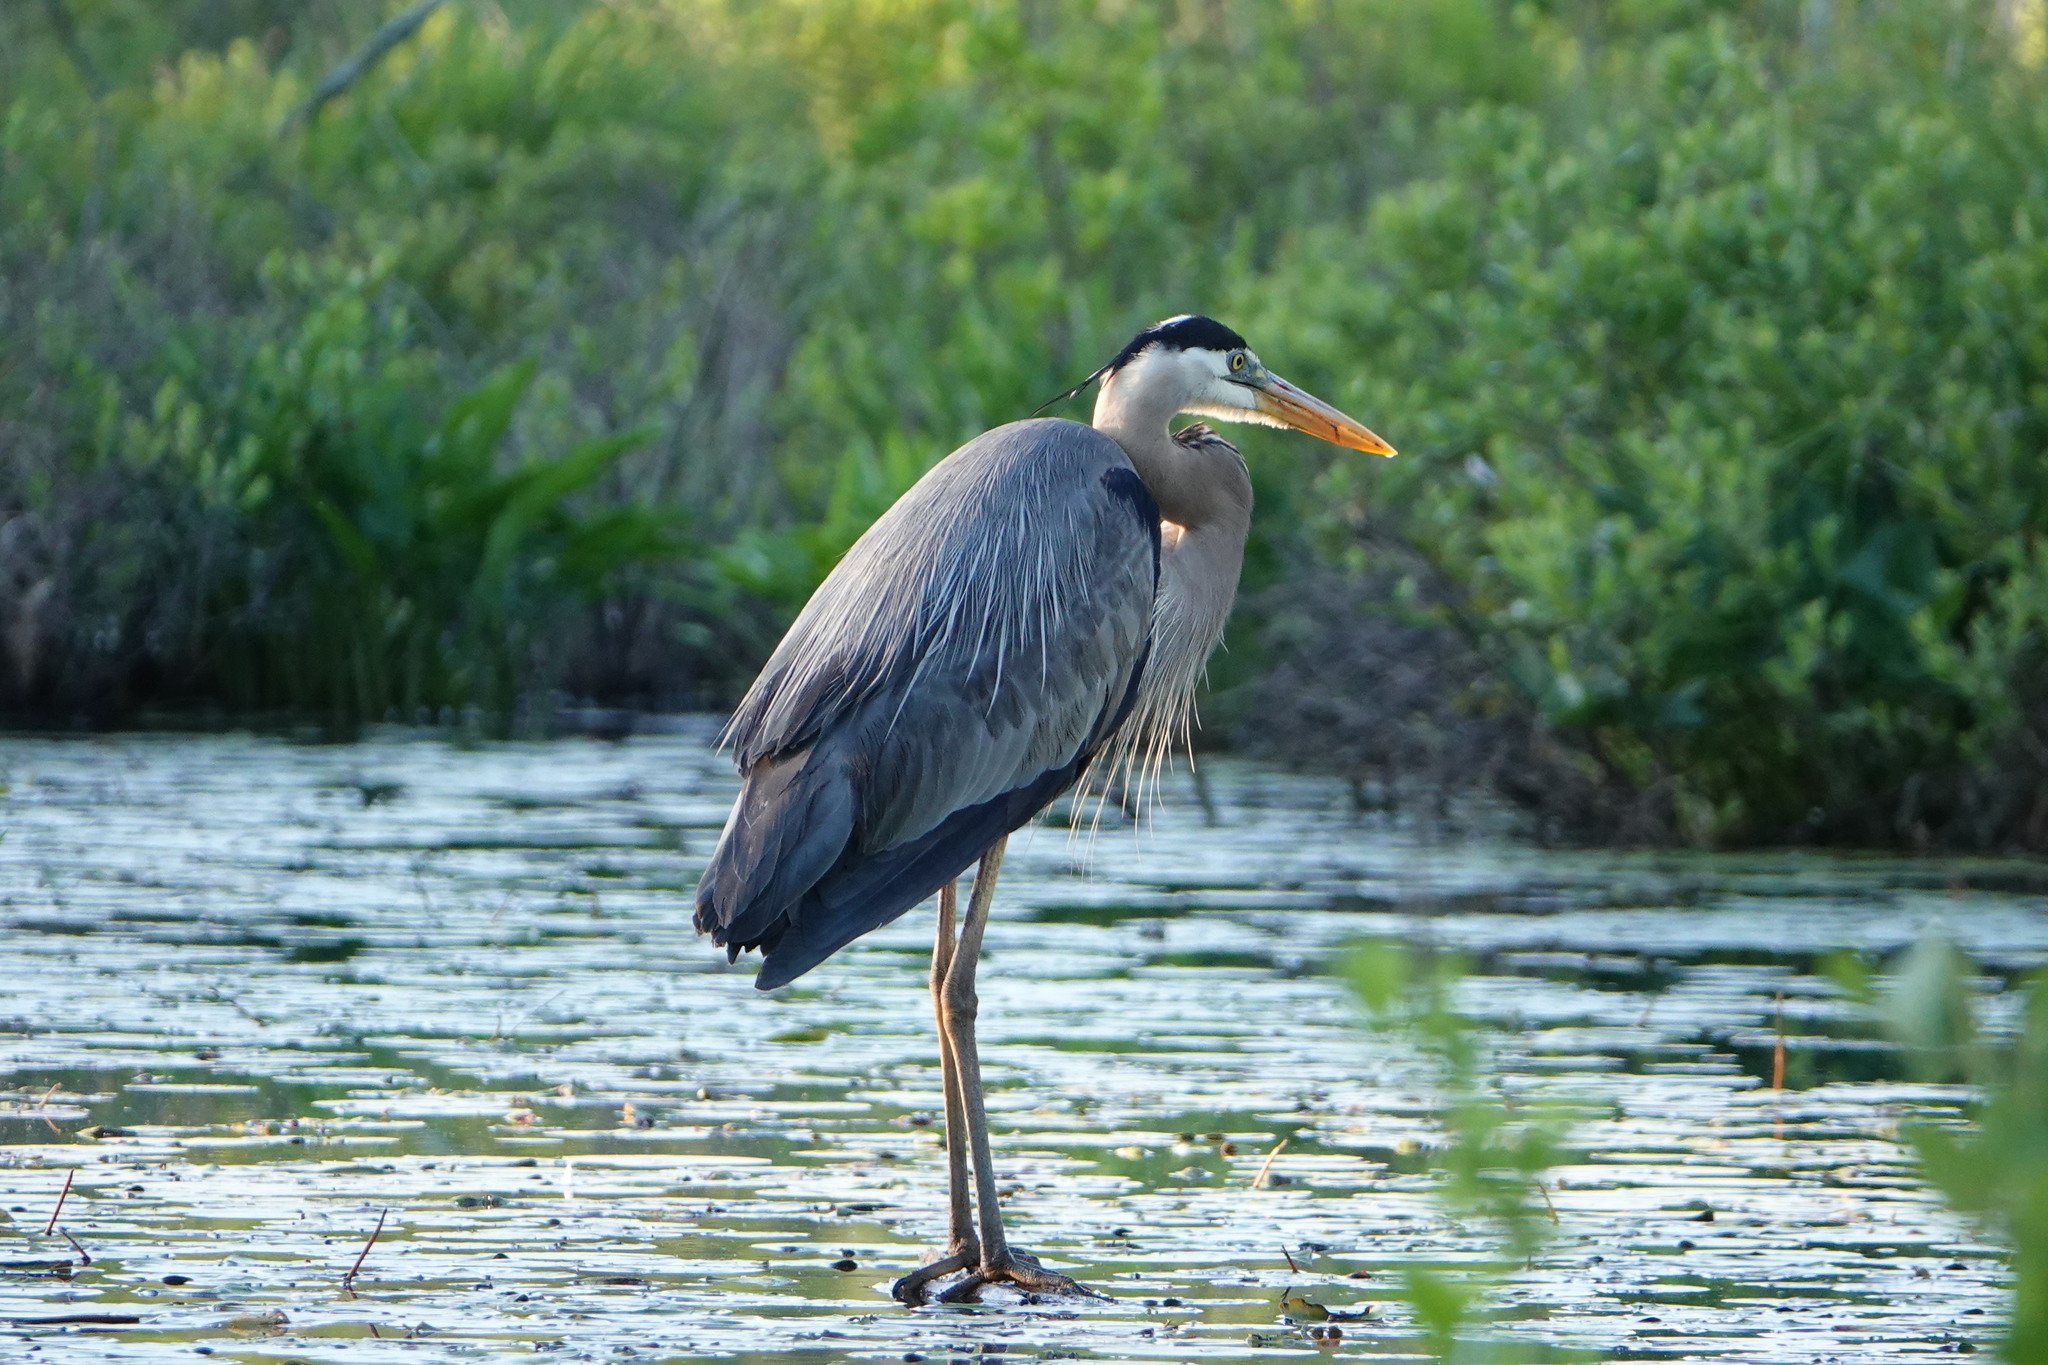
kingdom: Animalia
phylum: Chordata
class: Aves
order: Pelecaniformes
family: Ardeidae
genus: Ardea
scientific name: Ardea herodias
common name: Great blue heron
